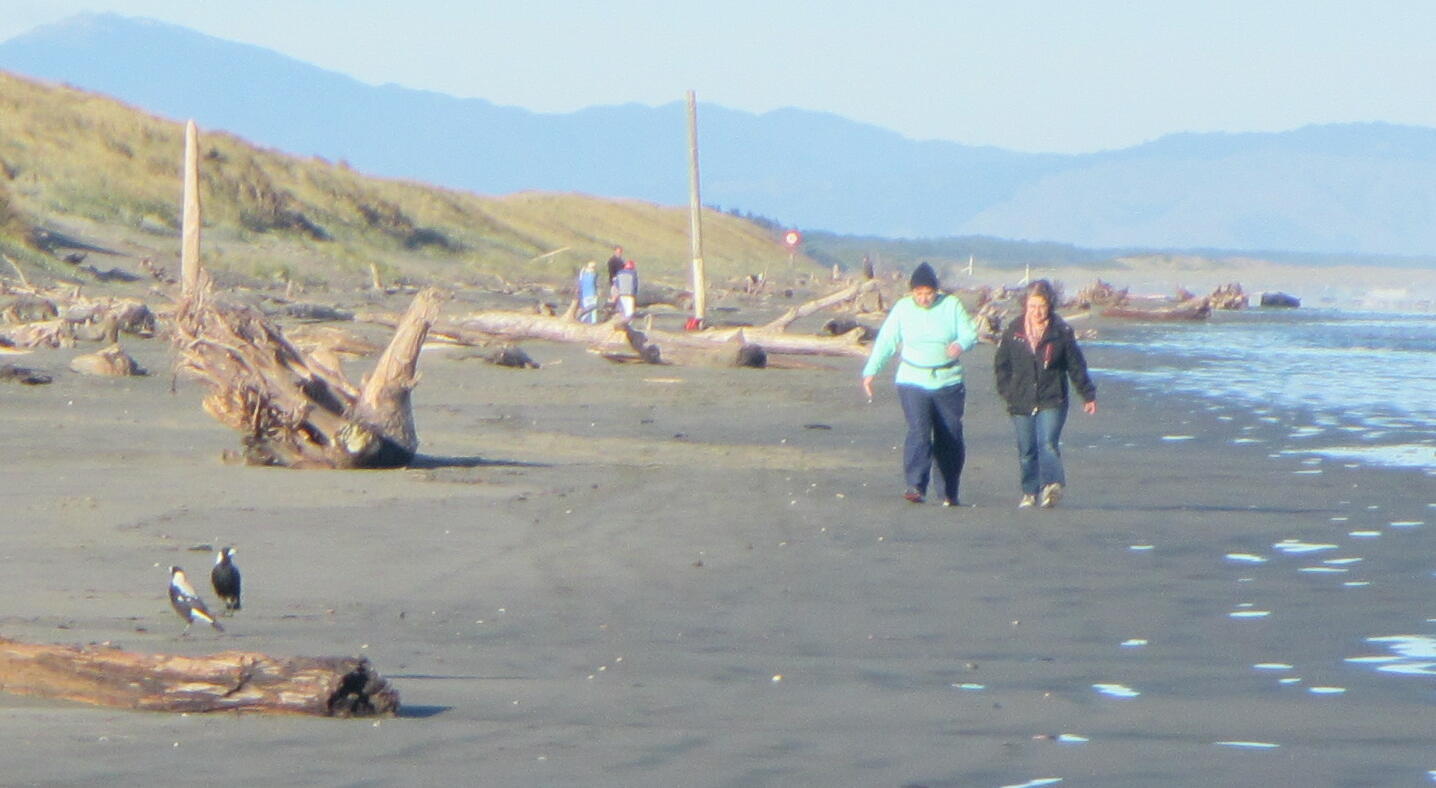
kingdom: Animalia
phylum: Chordata
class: Aves
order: Passeriformes
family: Cracticidae
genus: Gymnorhina
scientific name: Gymnorhina tibicen
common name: Australian magpie
